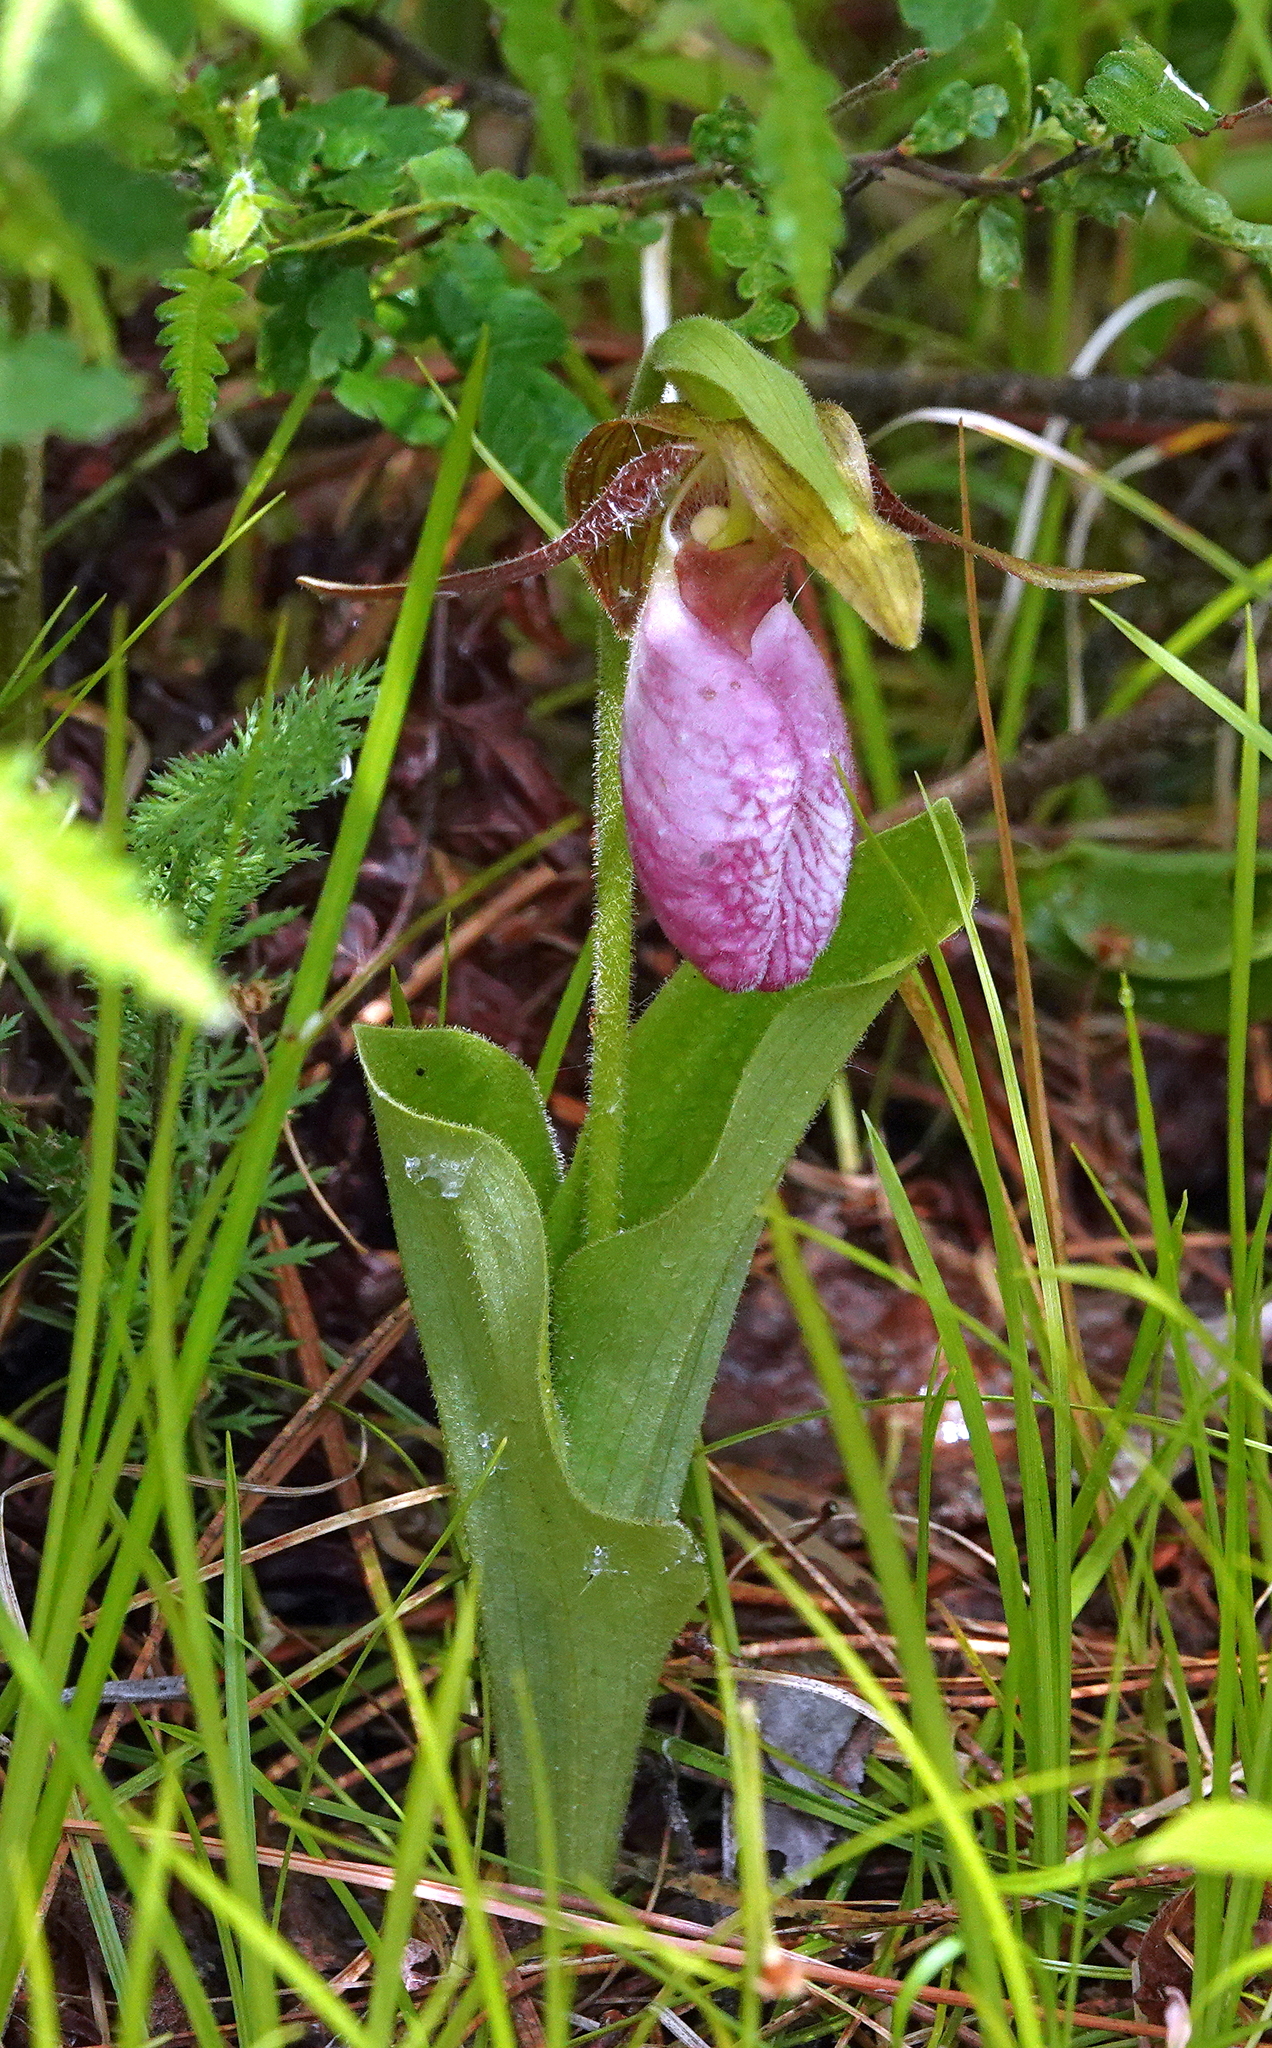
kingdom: Plantae
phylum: Tracheophyta
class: Liliopsida
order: Asparagales
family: Orchidaceae
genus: Cypripedium
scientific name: Cypripedium acaule
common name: Pink lady's-slipper
